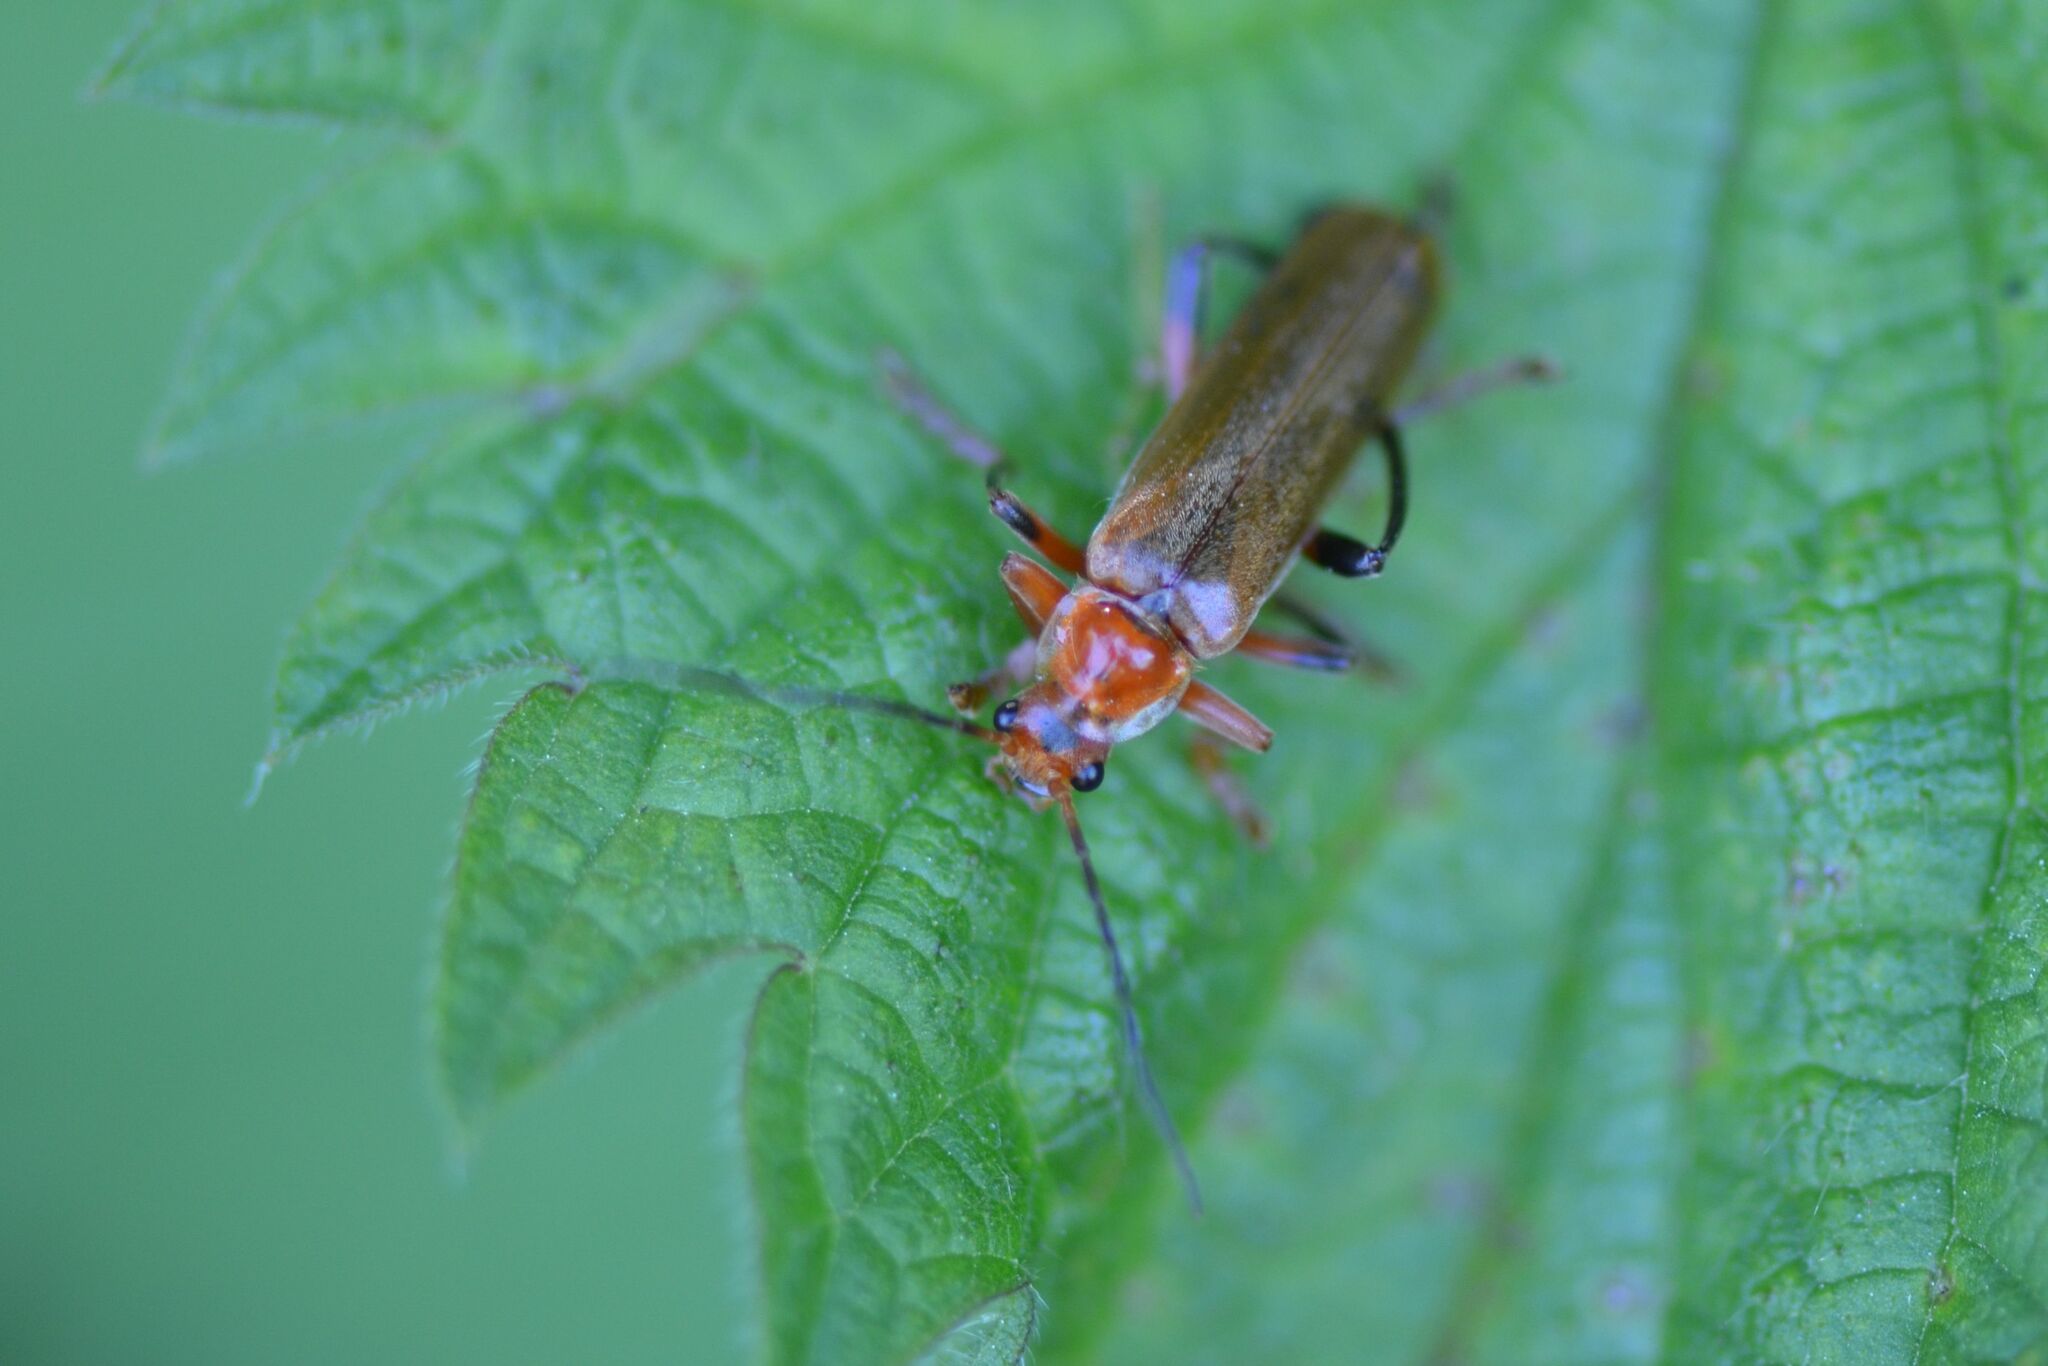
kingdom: Animalia
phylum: Arthropoda
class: Insecta
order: Coleoptera
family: Cantharidae
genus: Cantharis
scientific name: Cantharis livida
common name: Livid soldier beetle
